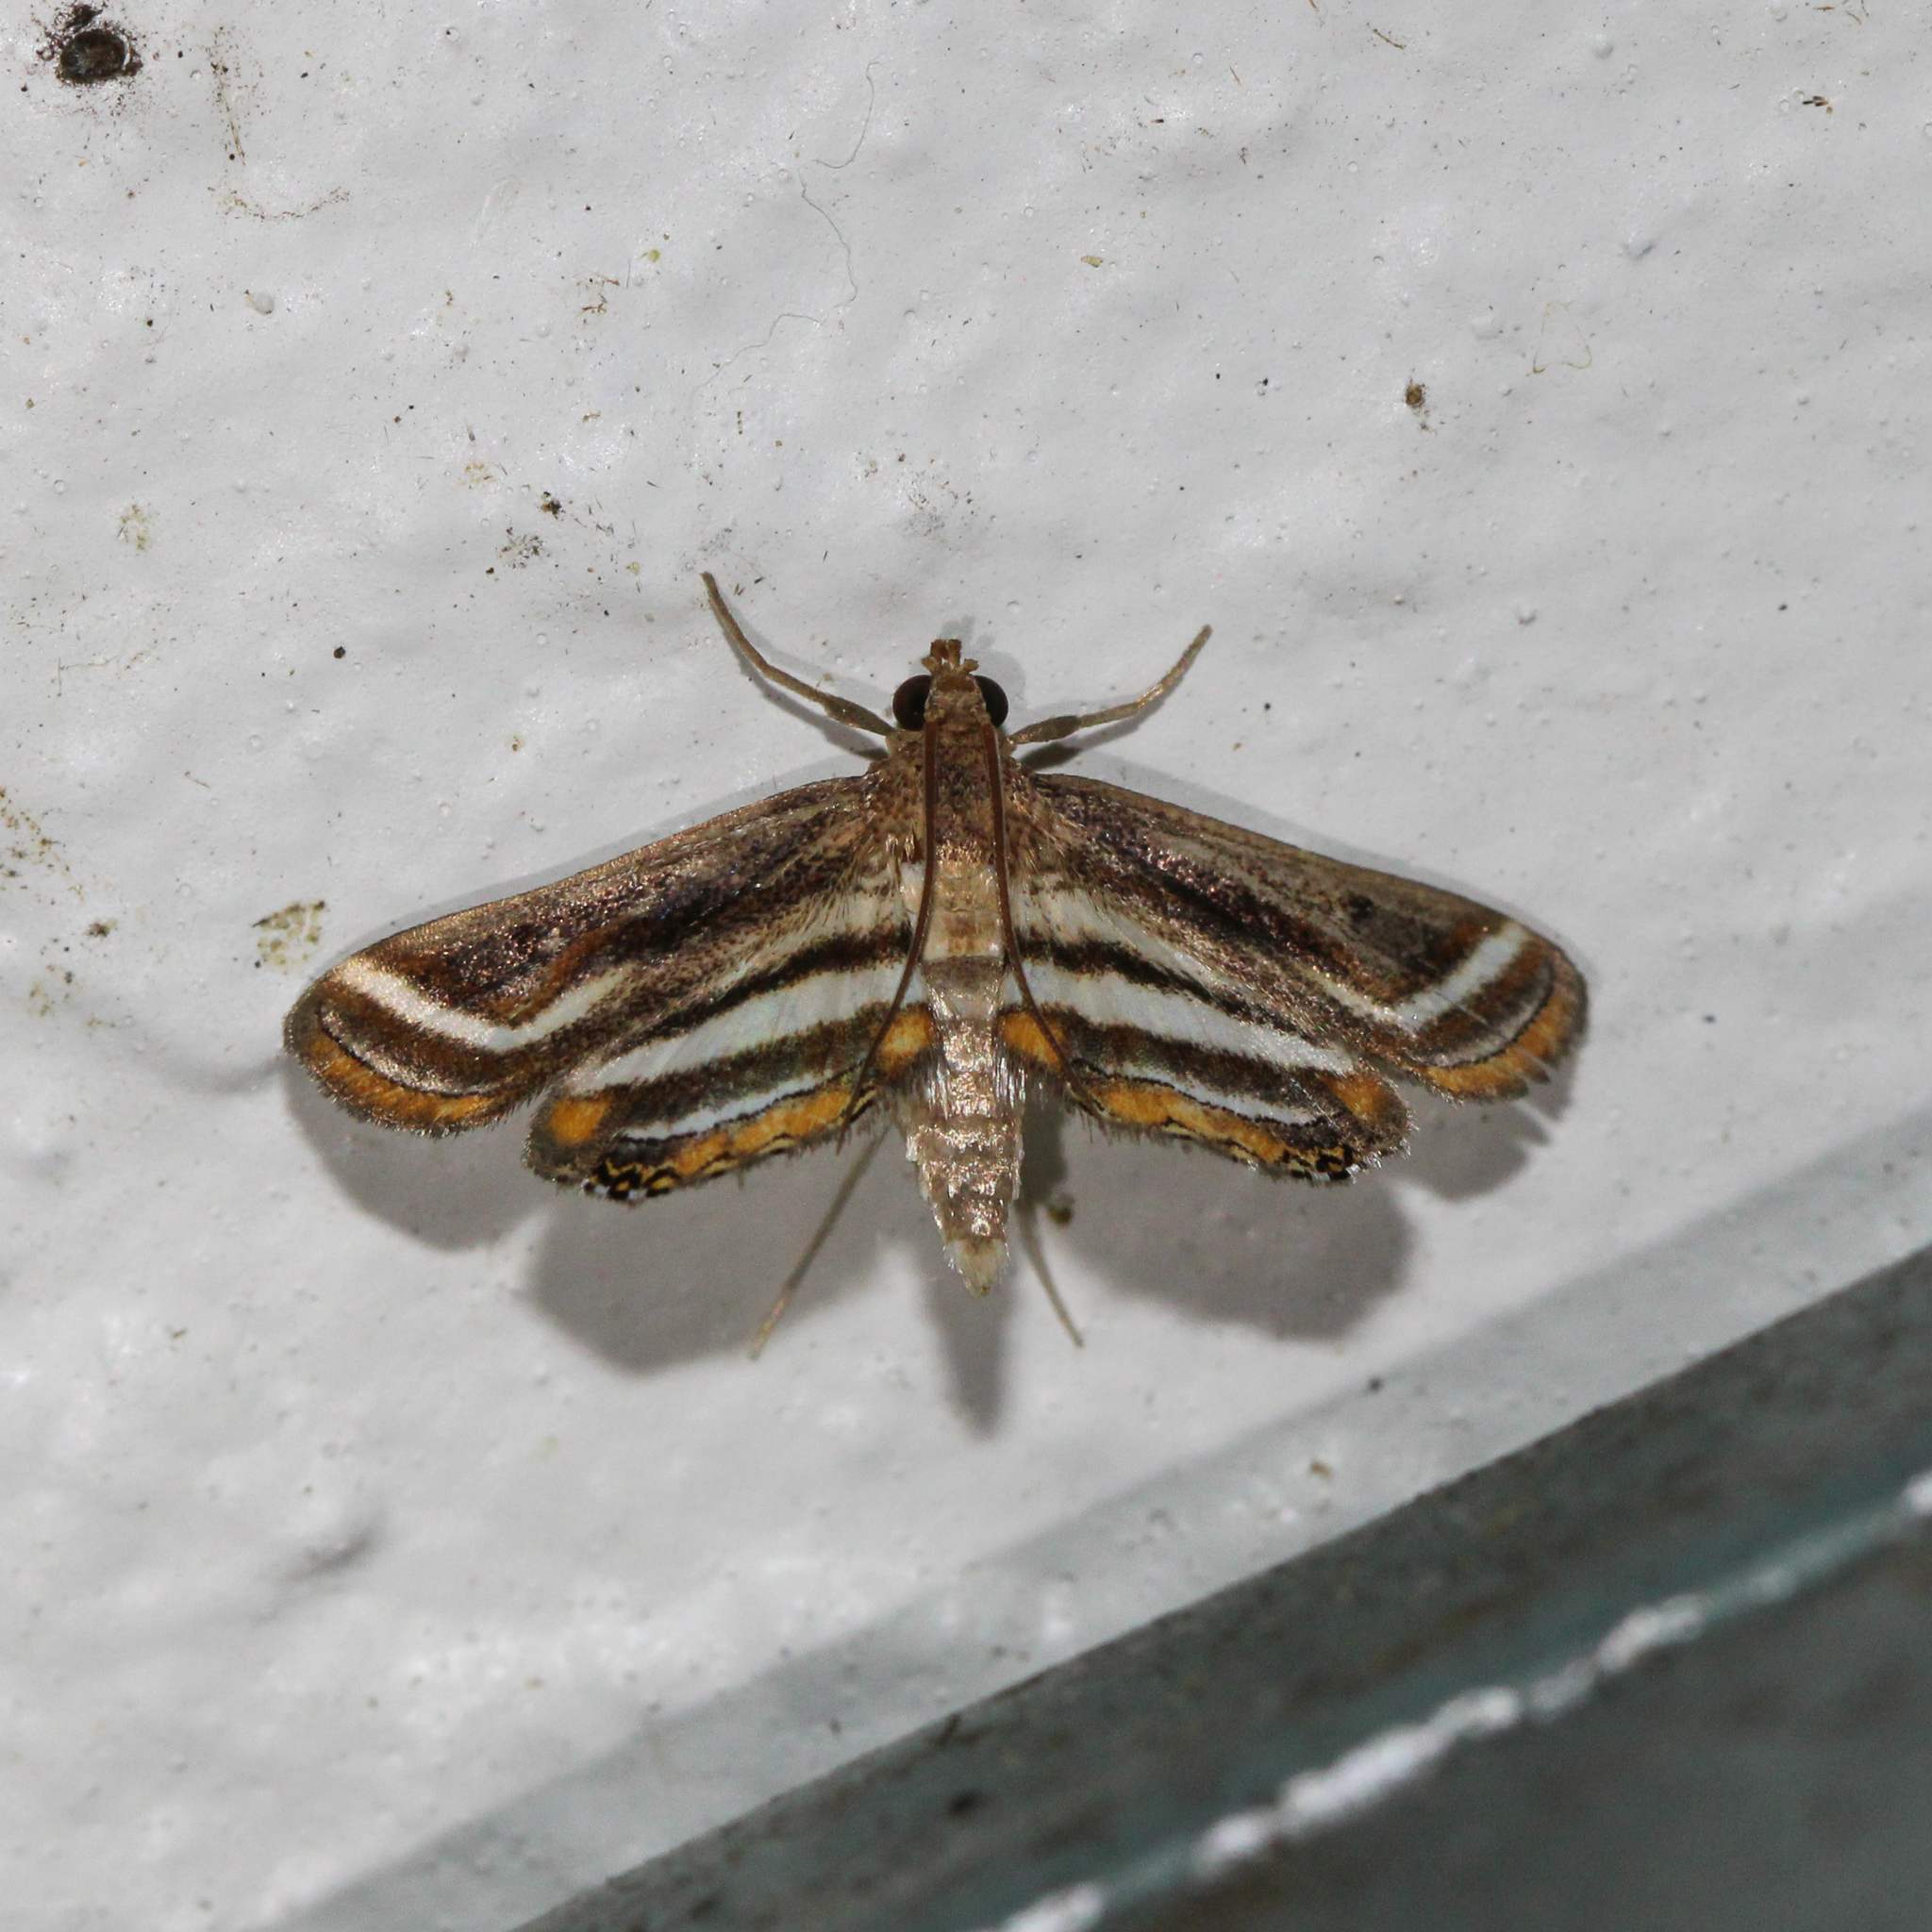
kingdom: Animalia
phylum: Arthropoda
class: Insecta
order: Lepidoptera
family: Crambidae
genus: Parapoynx
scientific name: Parapoynx seminealis
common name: Floating-heart waterlily leafcutter
